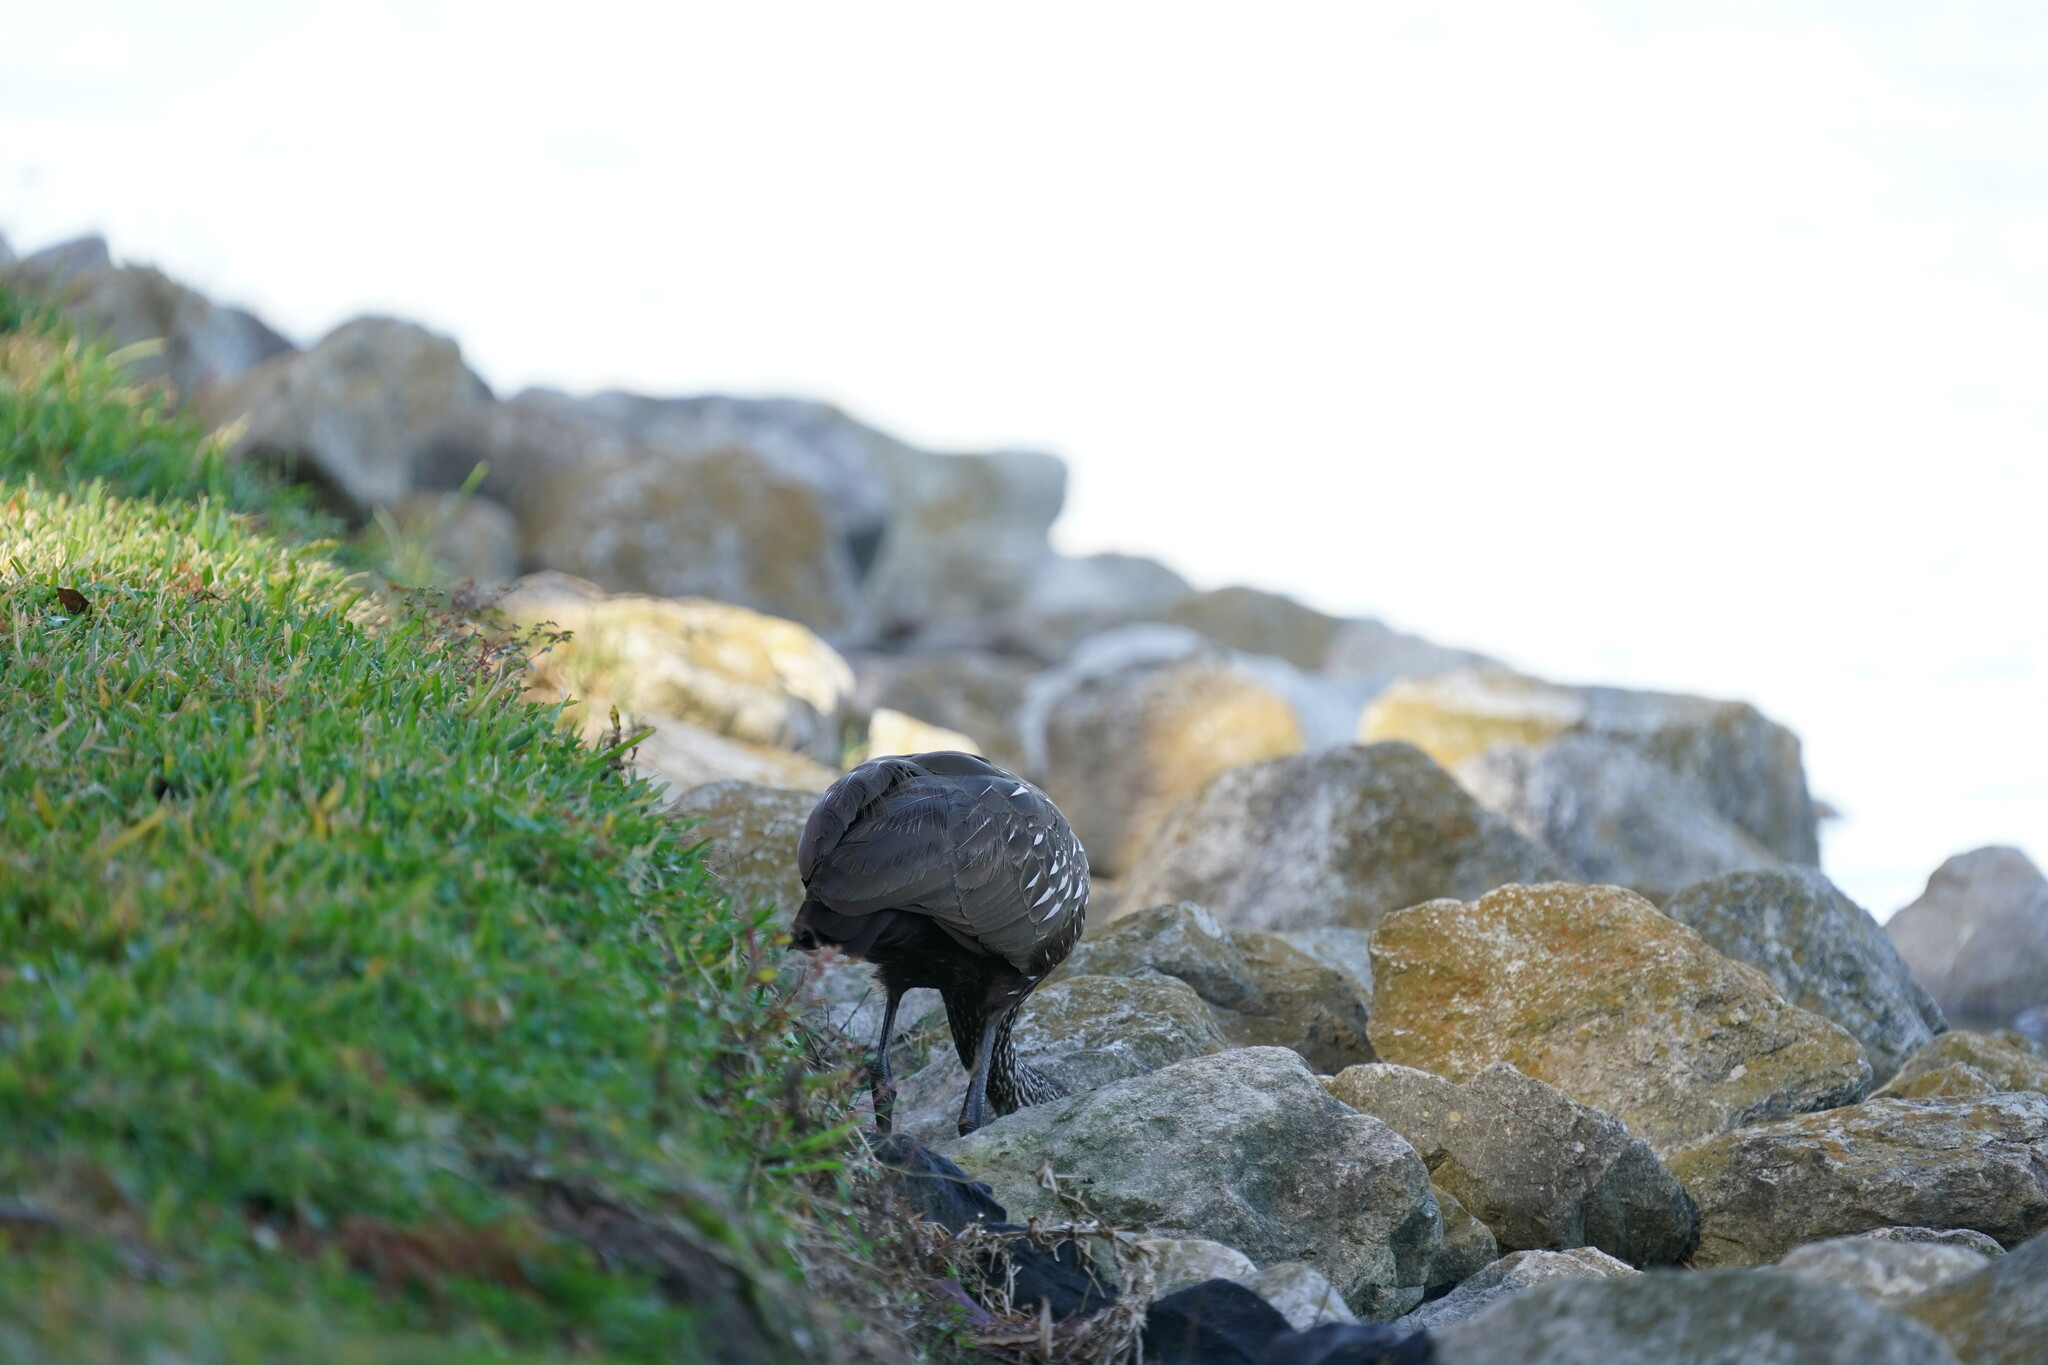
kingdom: Animalia
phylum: Chordata
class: Aves
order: Gruiformes
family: Aramidae
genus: Aramus
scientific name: Aramus guarauna
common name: Limpkin
